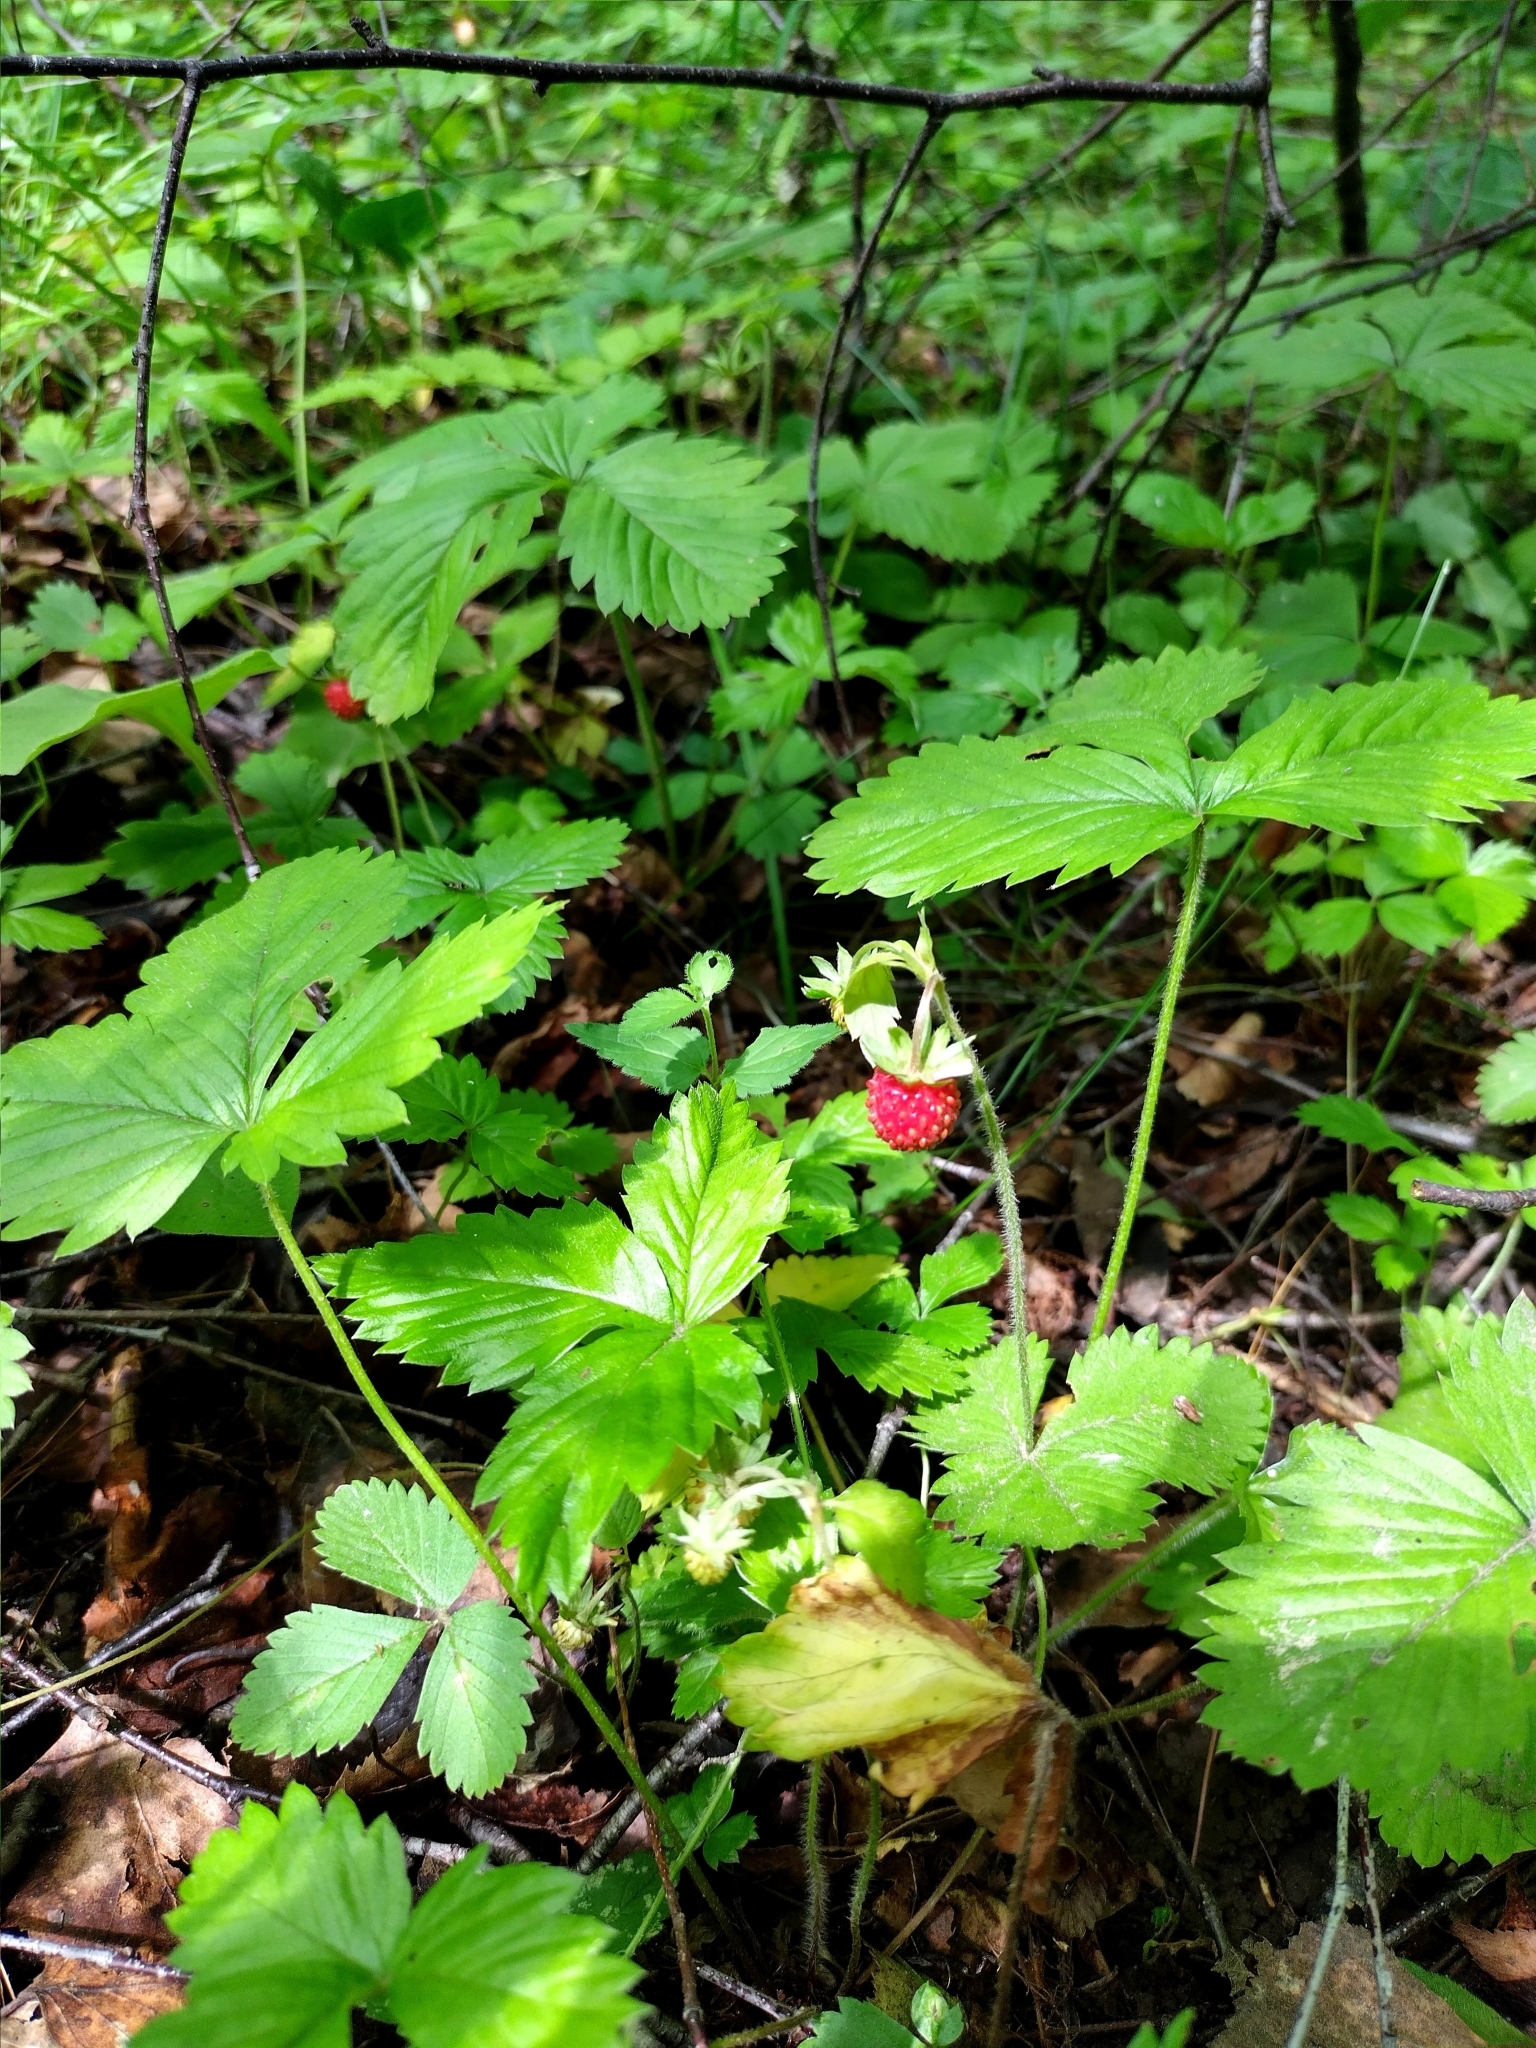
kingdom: Plantae
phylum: Tracheophyta
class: Magnoliopsida
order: Rosales
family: Rosaceae
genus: Fragaria
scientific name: Fragaria vesca
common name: Wild strawberry
